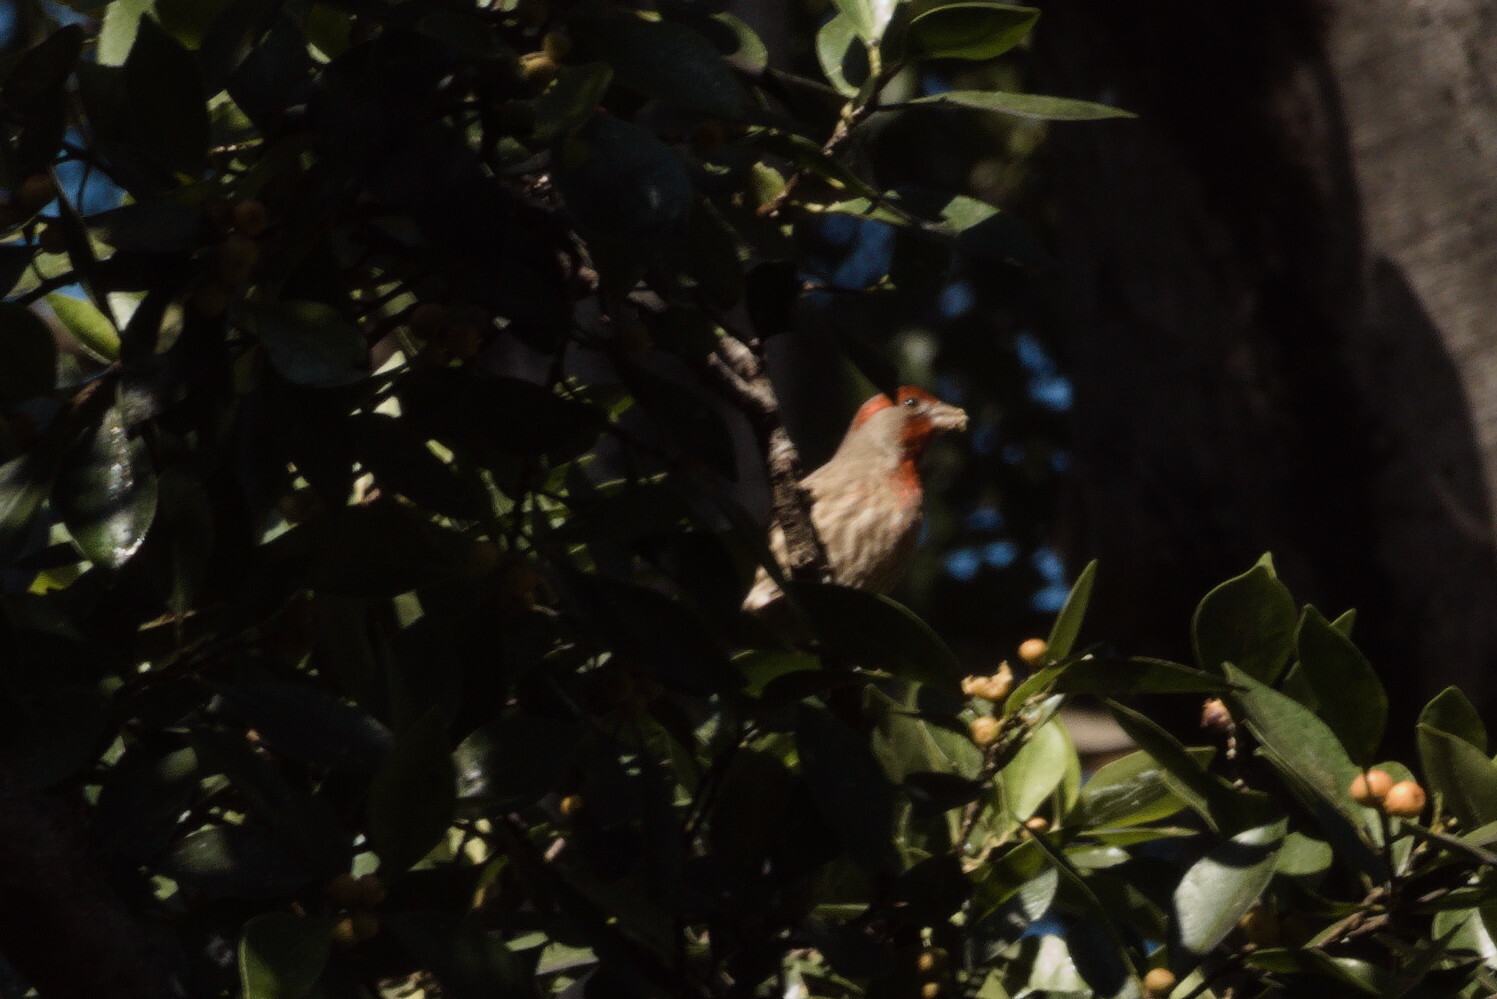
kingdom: Animalia
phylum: Chordata
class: Aves
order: Passeriformes
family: Fringillidae
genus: Haemorhous
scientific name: Haemorhous mexicanus
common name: House finch
